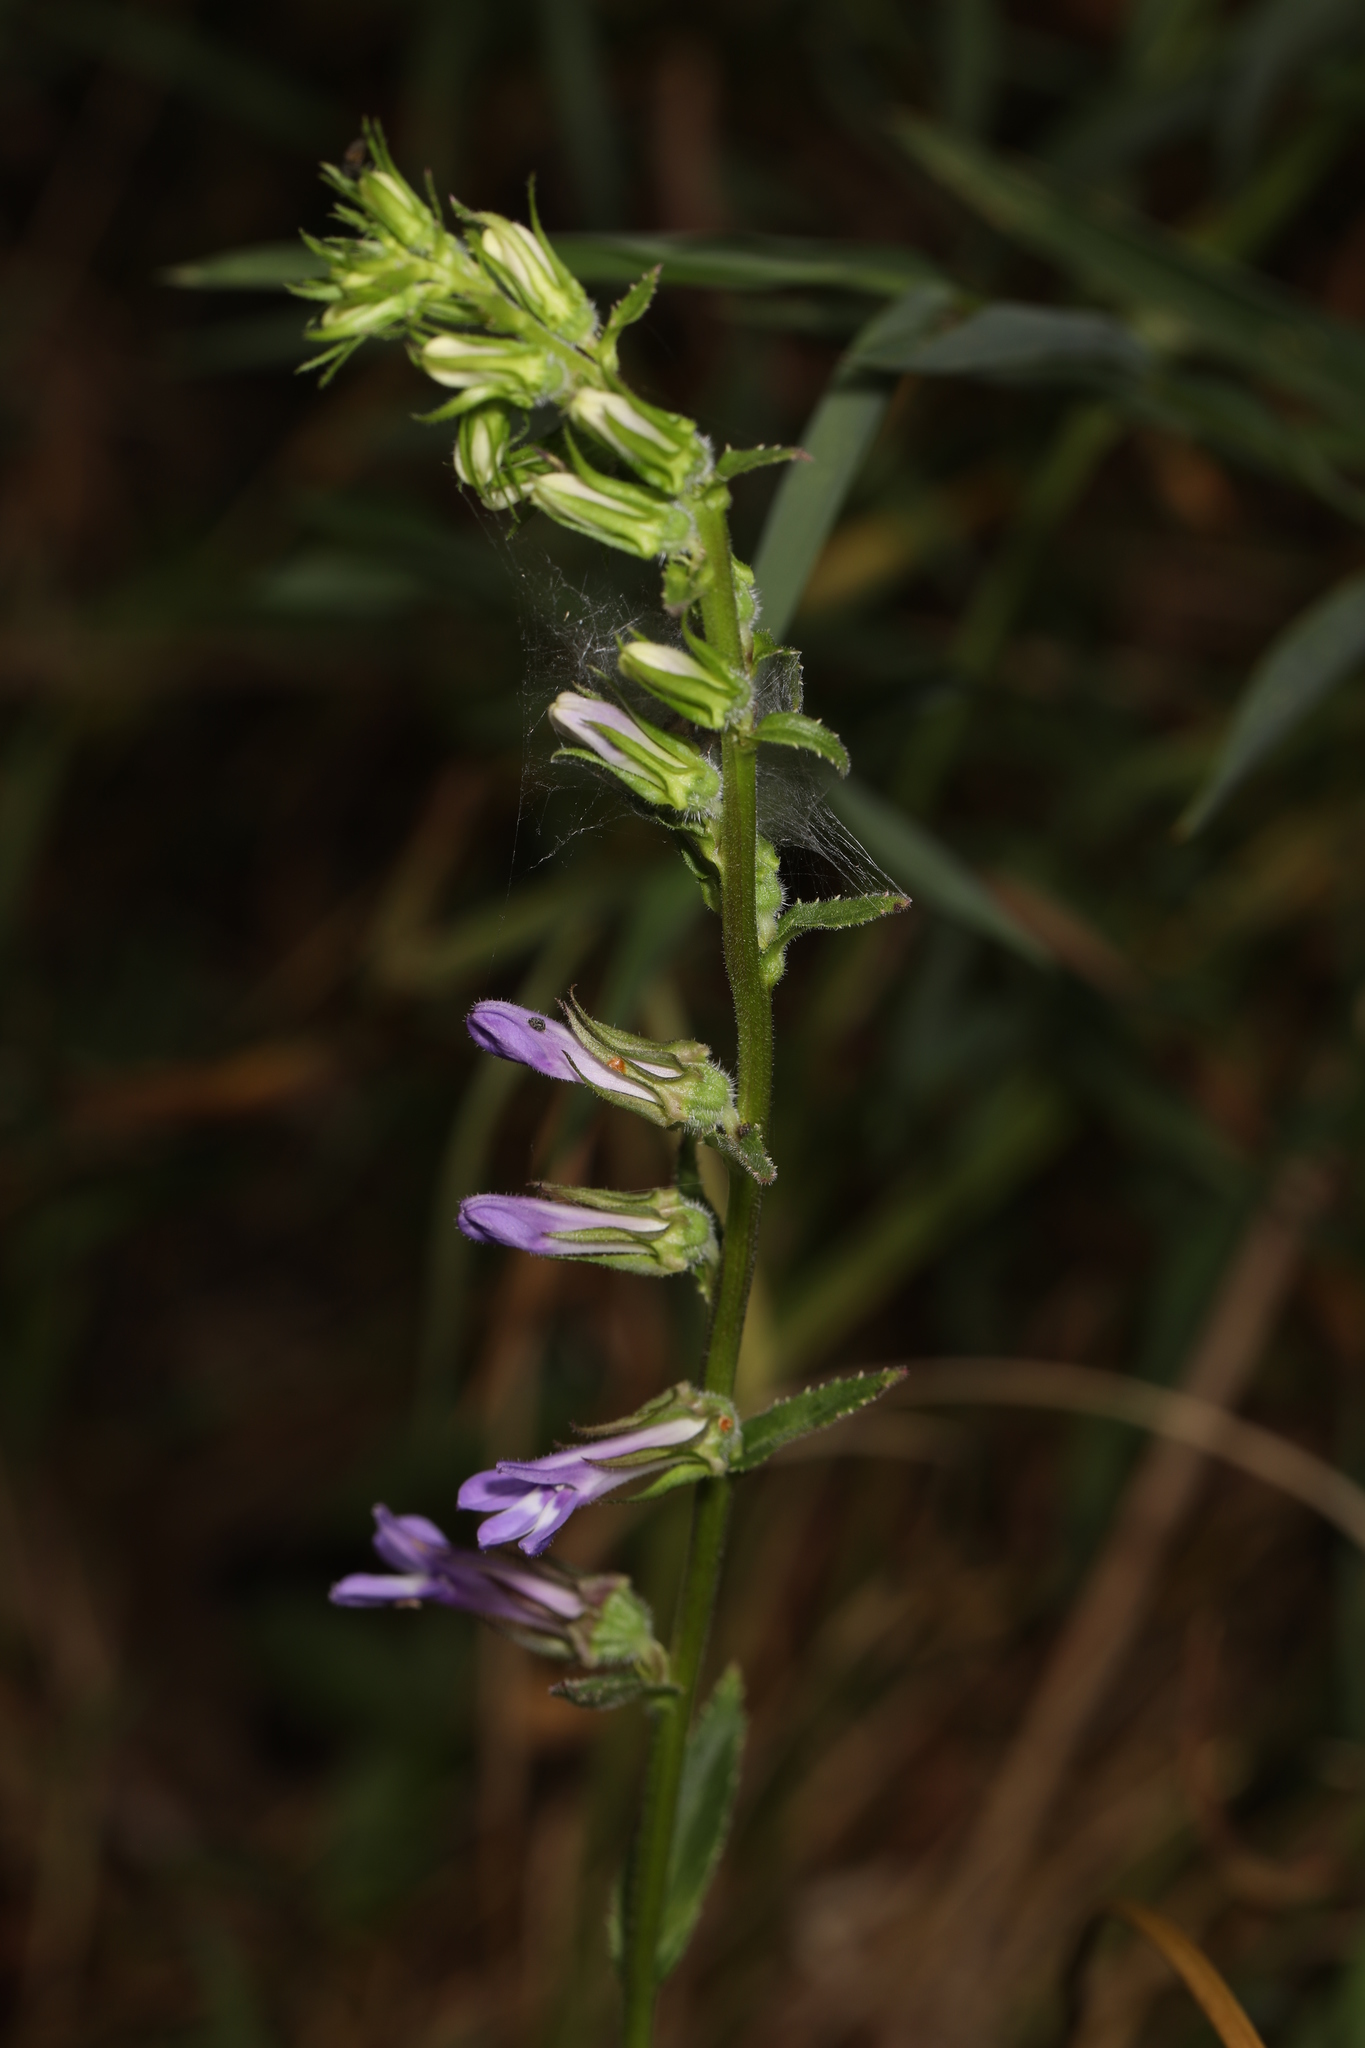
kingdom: Plantae
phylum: Tracheophyta
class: Magnoliopsida
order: Asterales
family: Campanulaceae
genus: Lobelia
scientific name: Lobelia puberula
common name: Purple dewdrop
